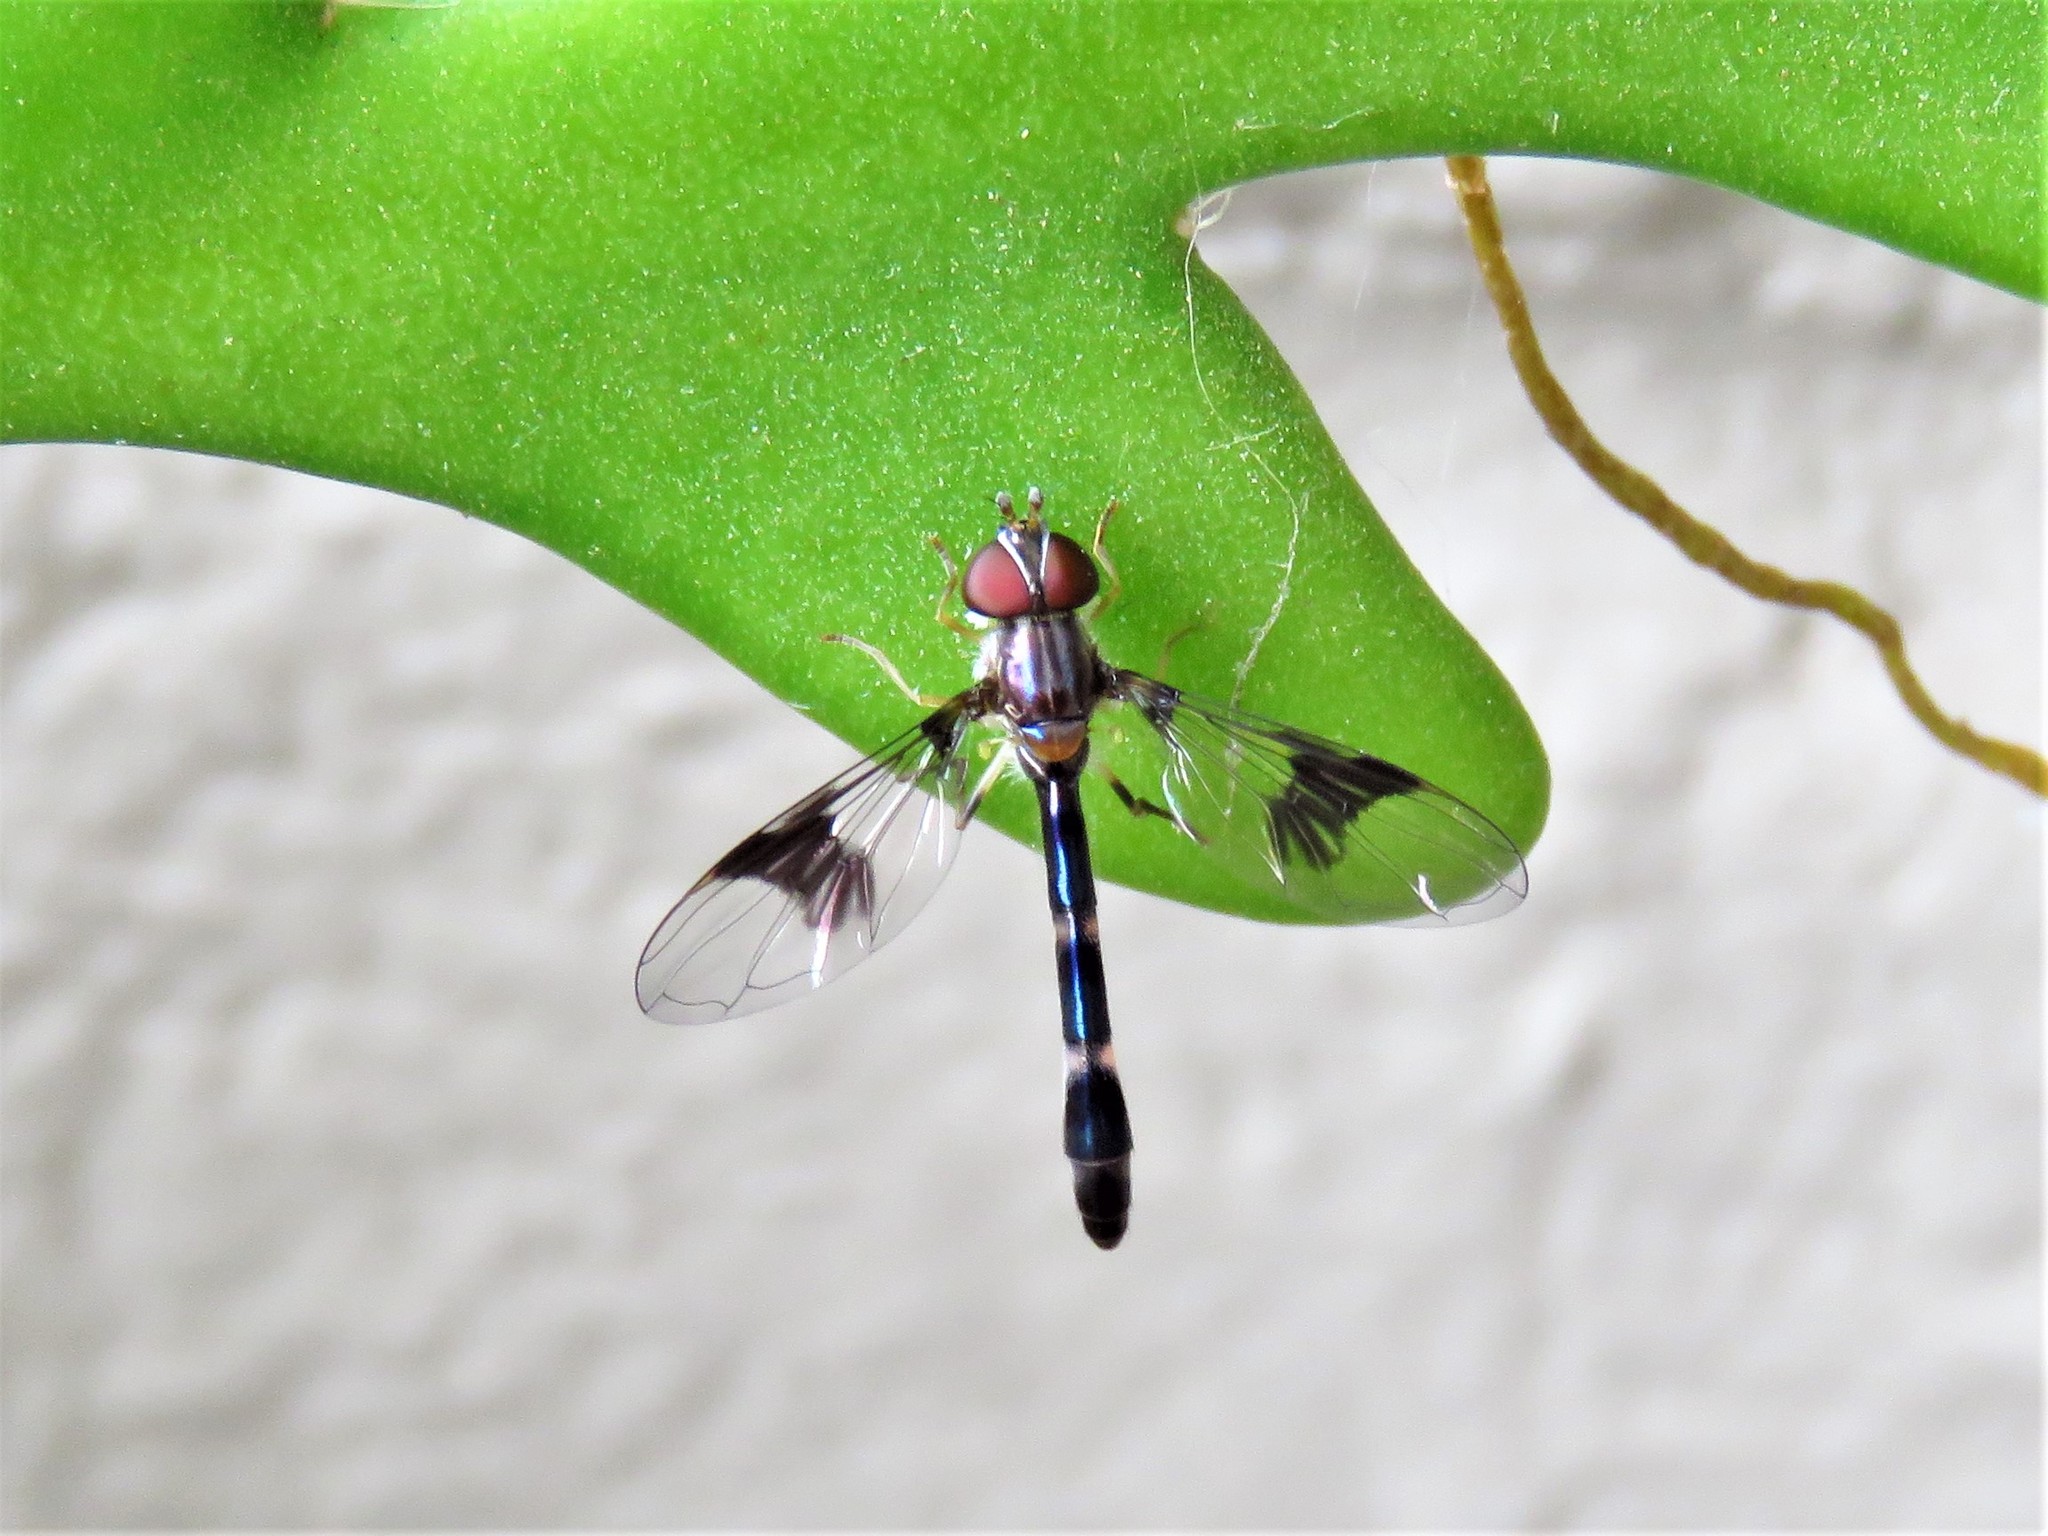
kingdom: Animalia
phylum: Arthropoda
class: Insecta
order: Diptera
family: Syrphidae
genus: Hypocritanus
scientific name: Hypocritanus fascipennis
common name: Eastern band-winged hover fly
